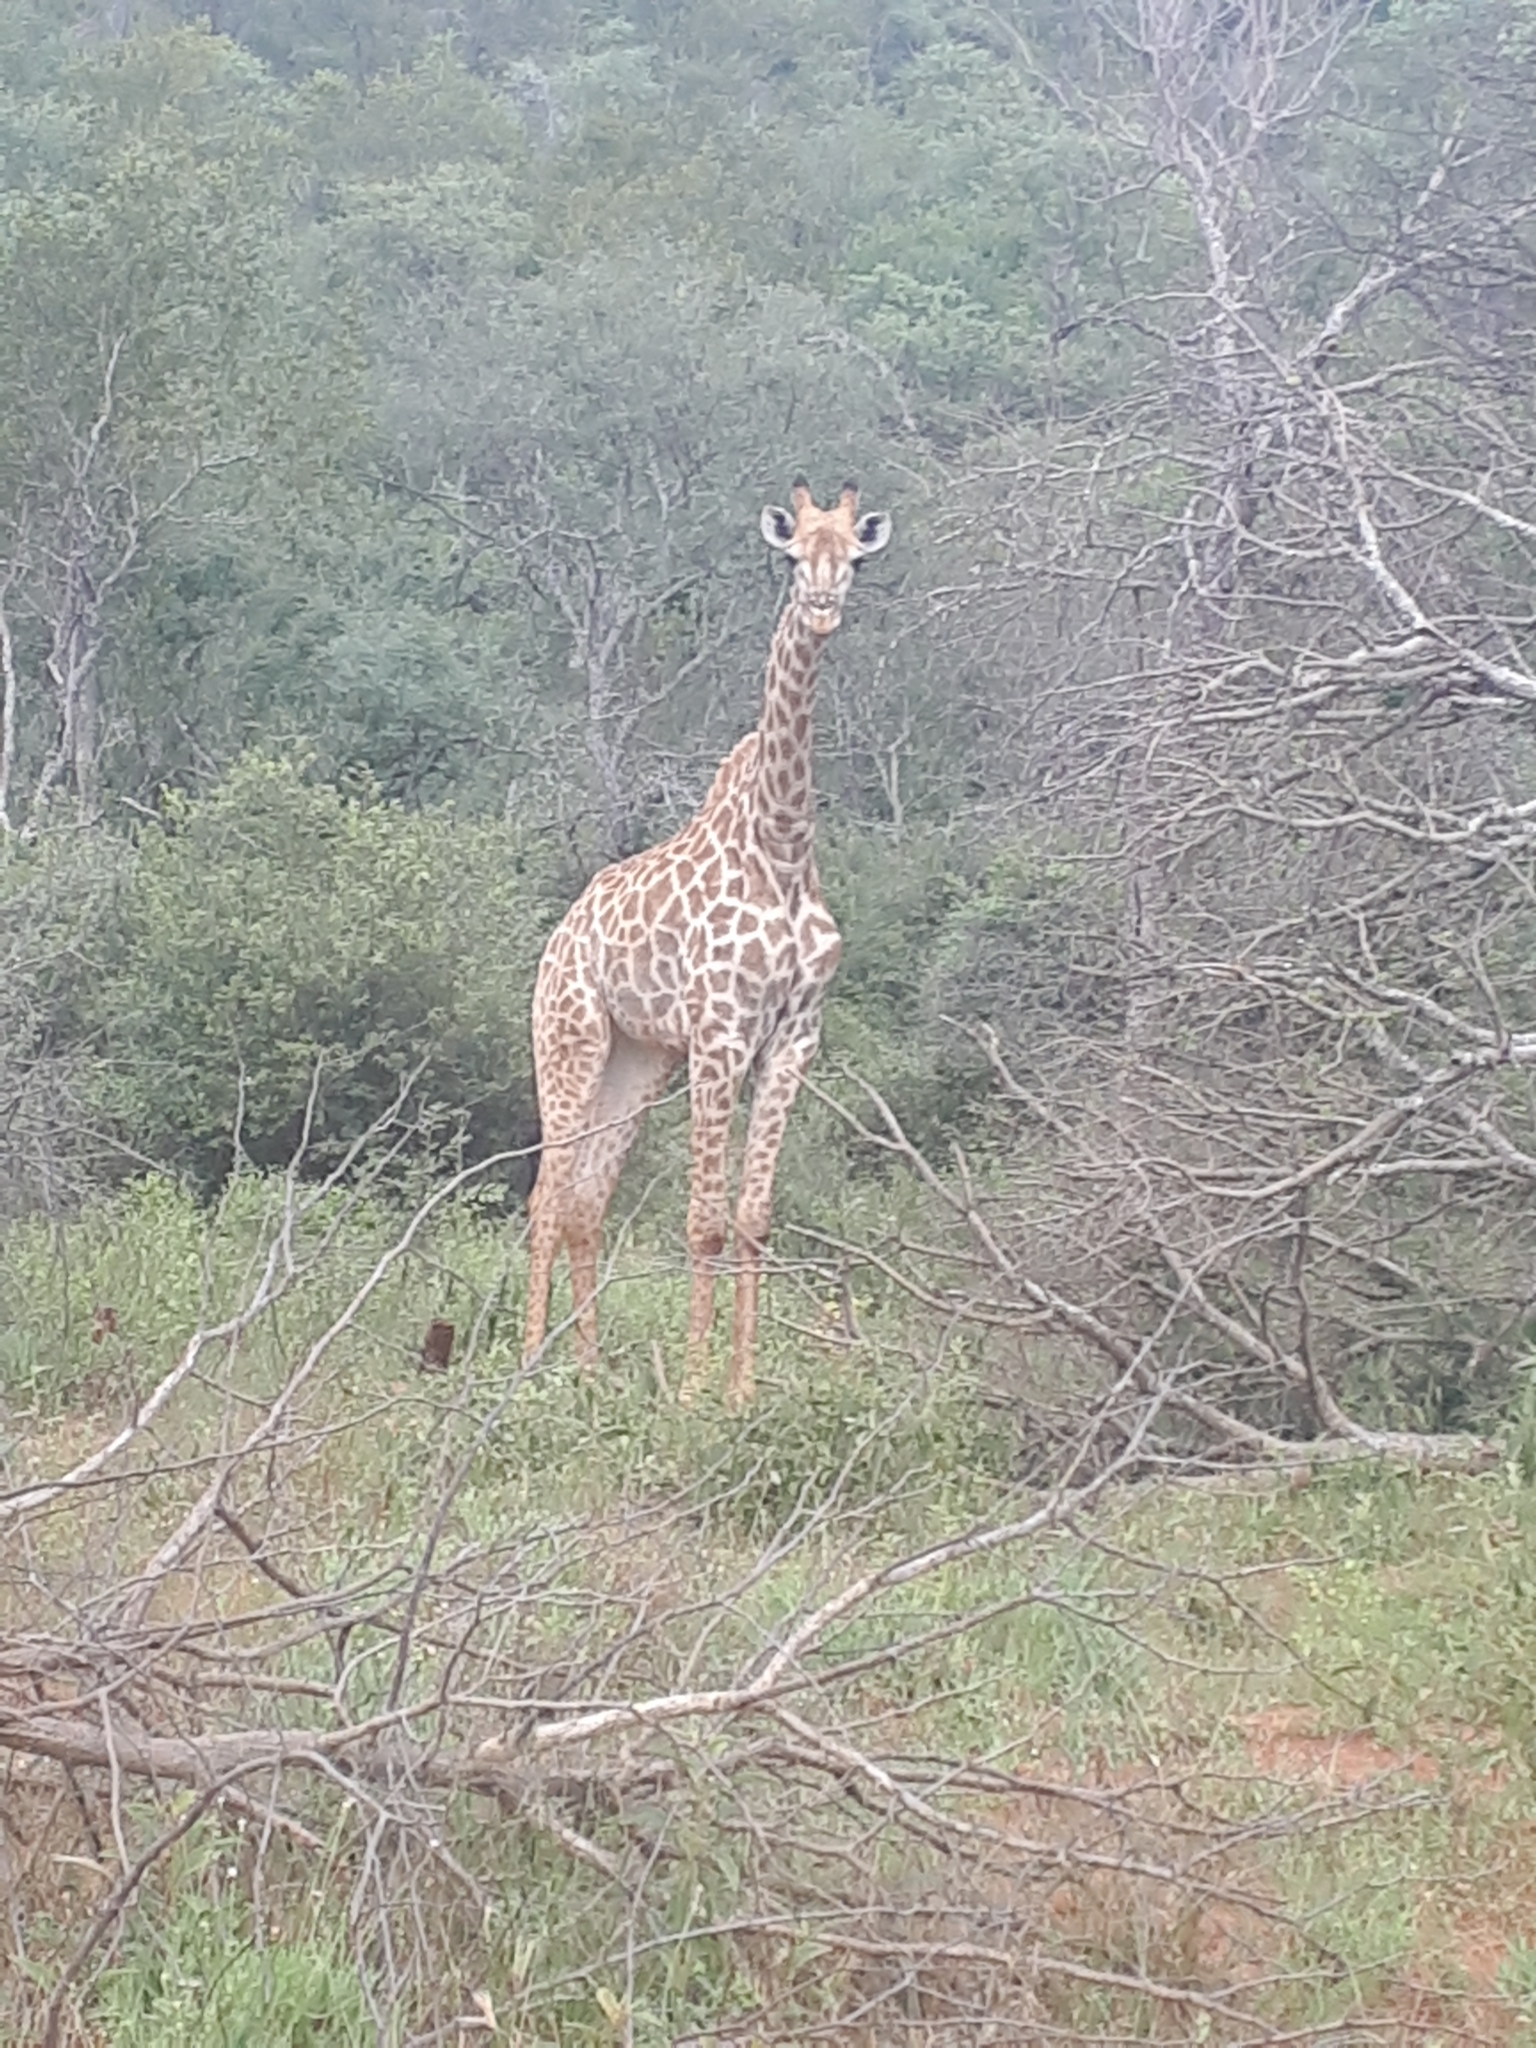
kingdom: Animalia
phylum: Chordata
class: Mammalia
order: Artiodactyla
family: Giraffidae
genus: Giraffa
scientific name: Giraffa giraffa
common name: Southern giraffe
